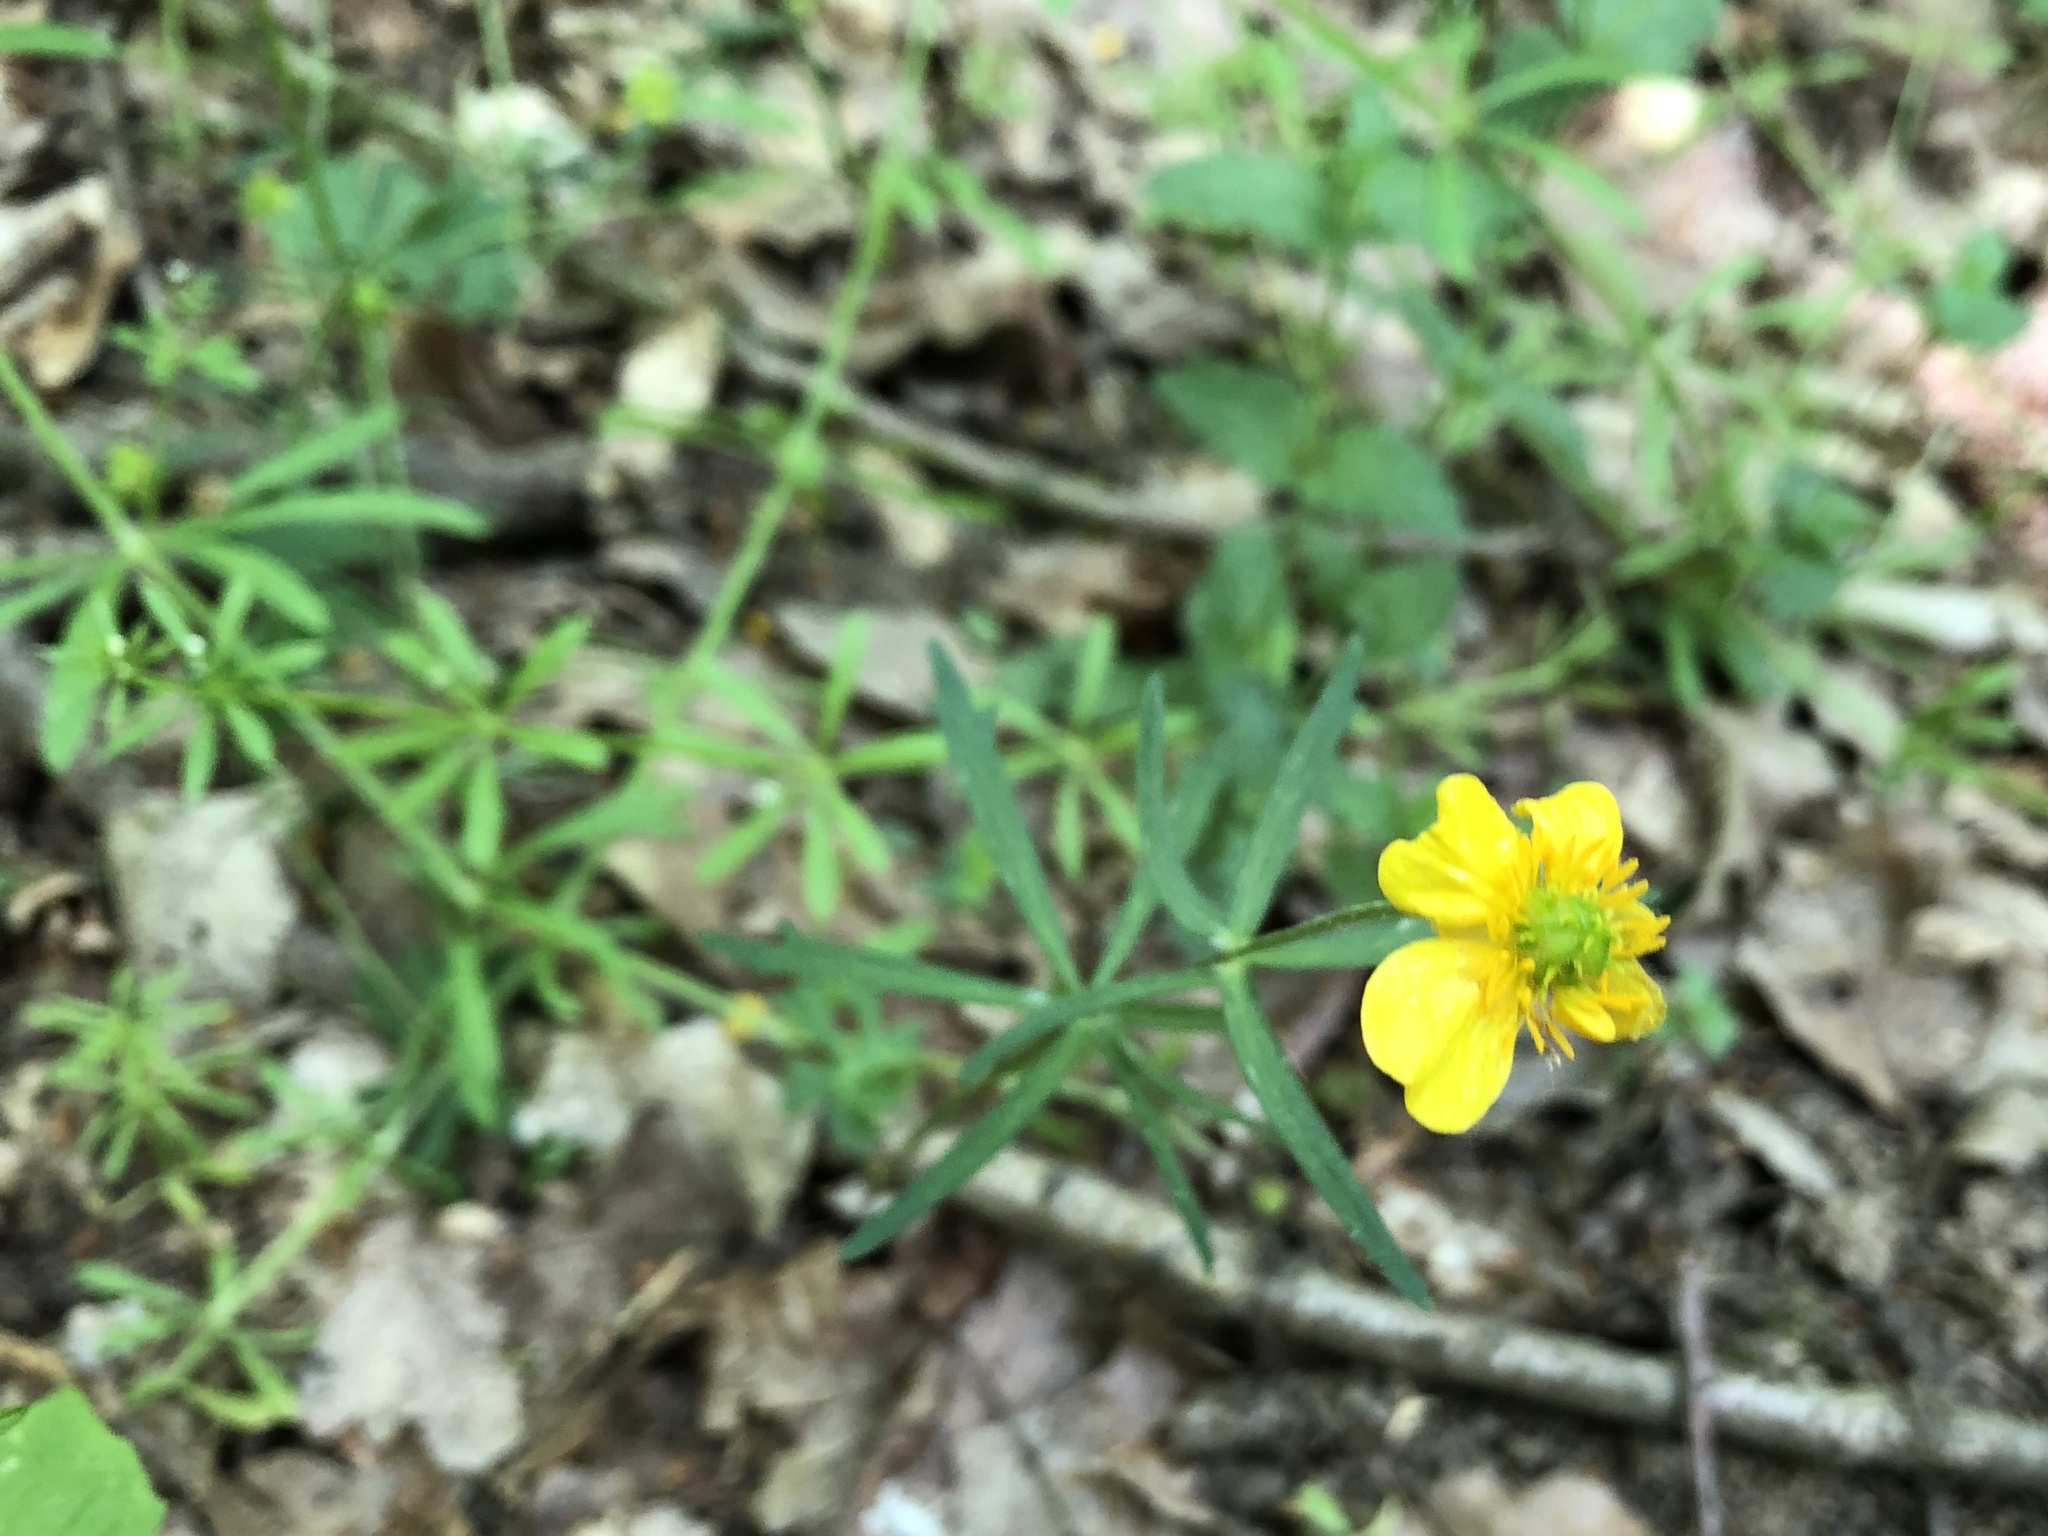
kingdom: Plantae
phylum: Tracheophyta
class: Magnoliopsida
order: Ranunculales
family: Ranunculaceae
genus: Ranunculus
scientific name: Ranunculus auricomus
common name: Goldilocks buttercup
